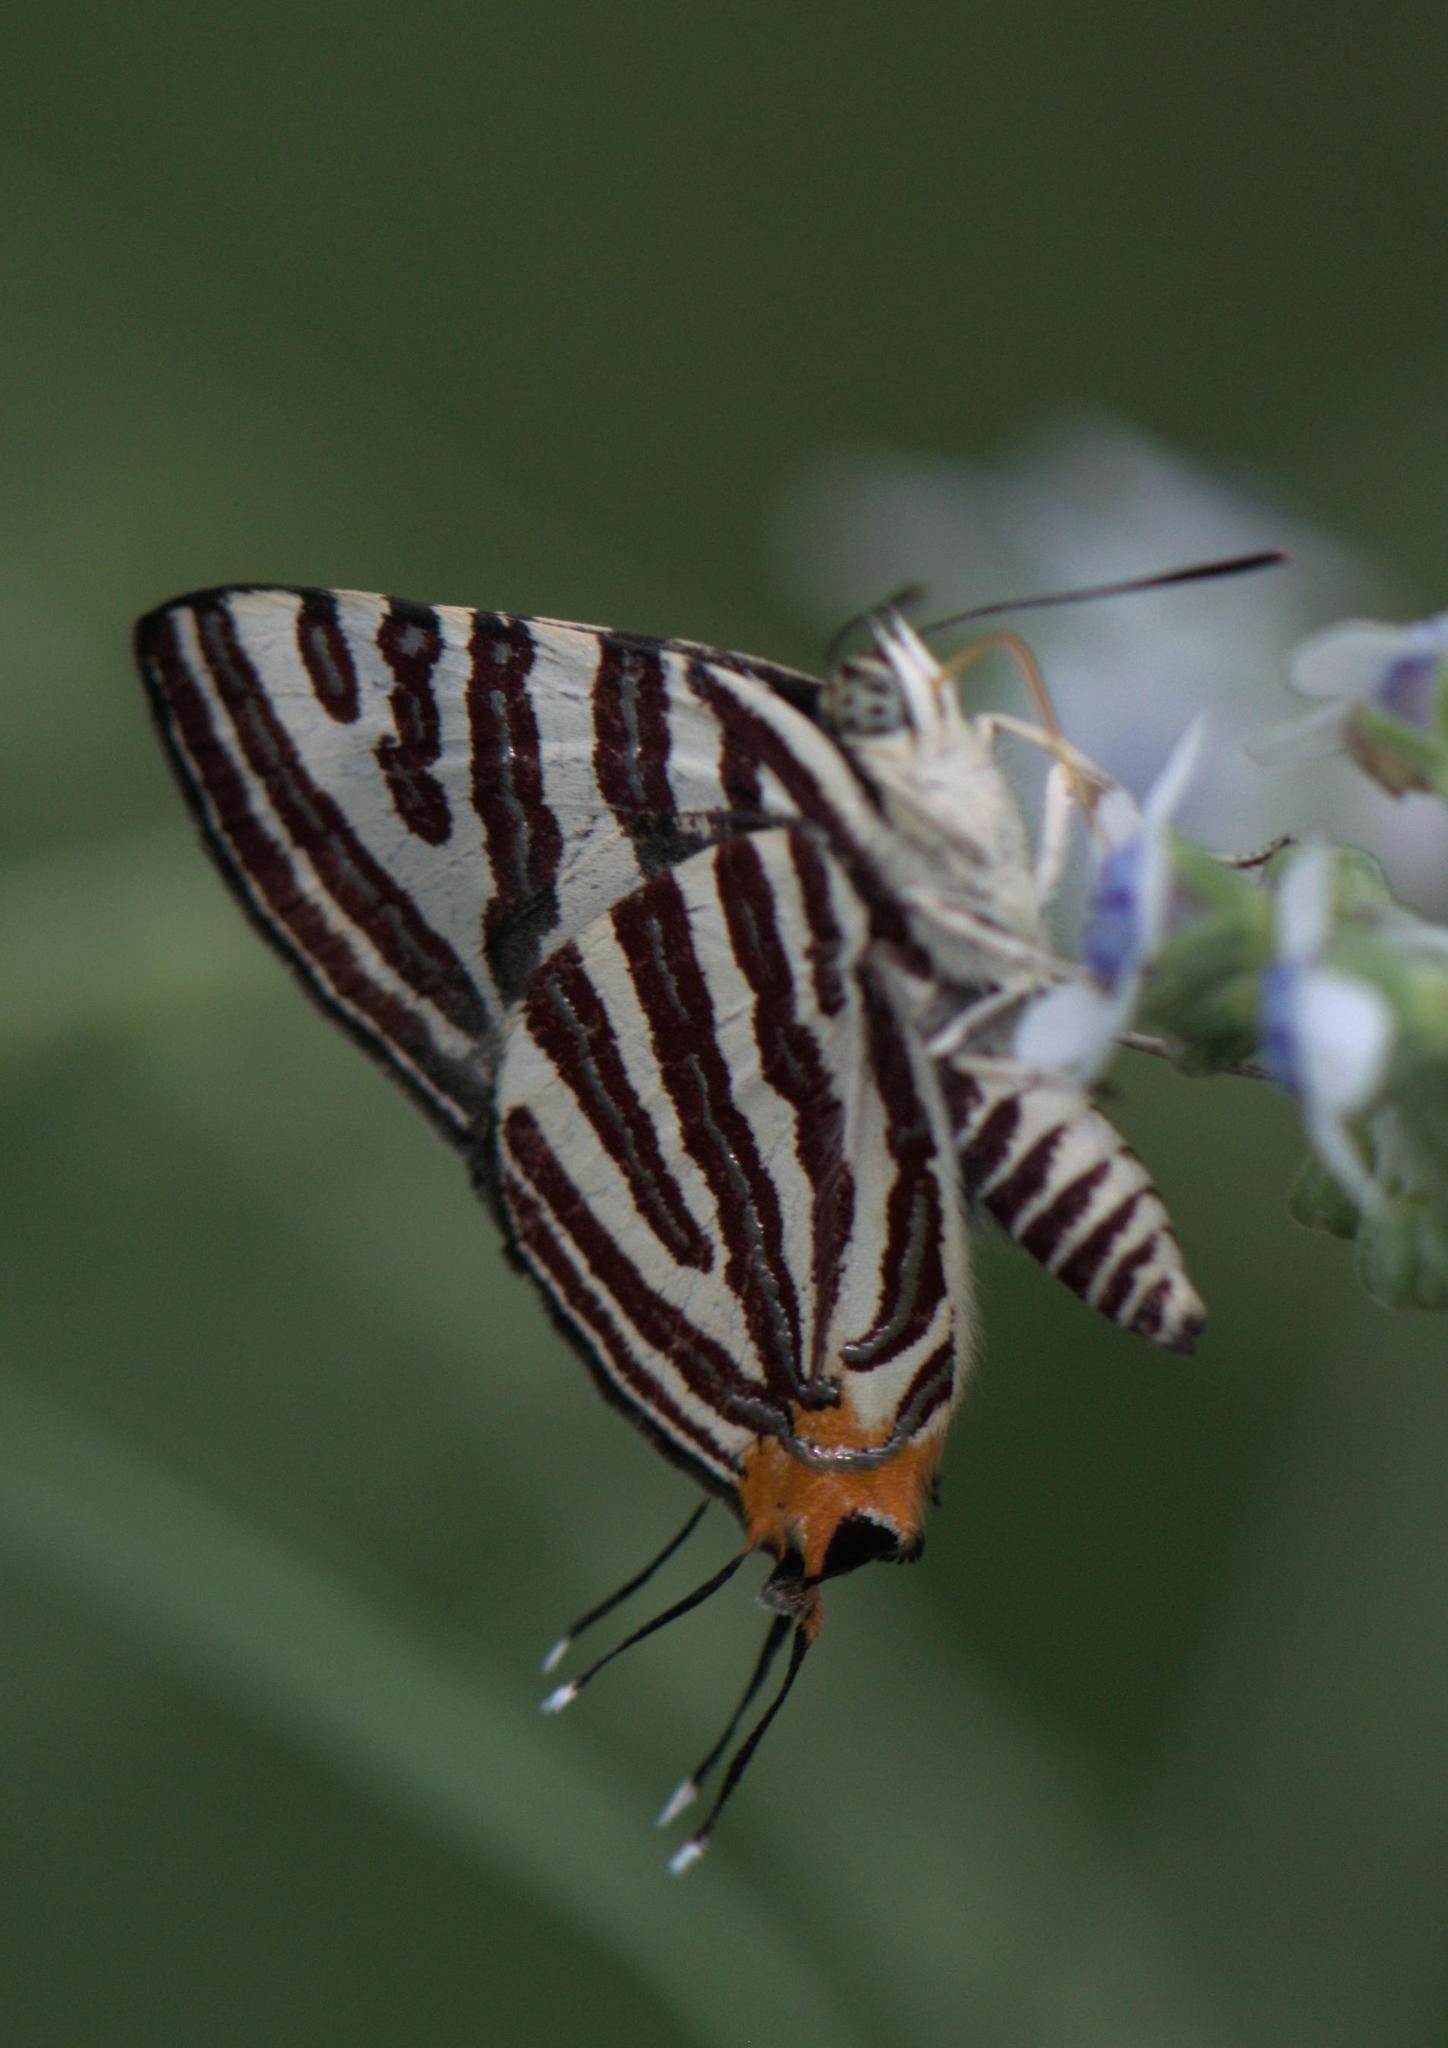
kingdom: Animalia
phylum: Arthropoda
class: Insecta
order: Lepidoptera
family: Lycaenidae
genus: Cigaritis
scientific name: Cigaritis lohita
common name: Long-banded silverline
